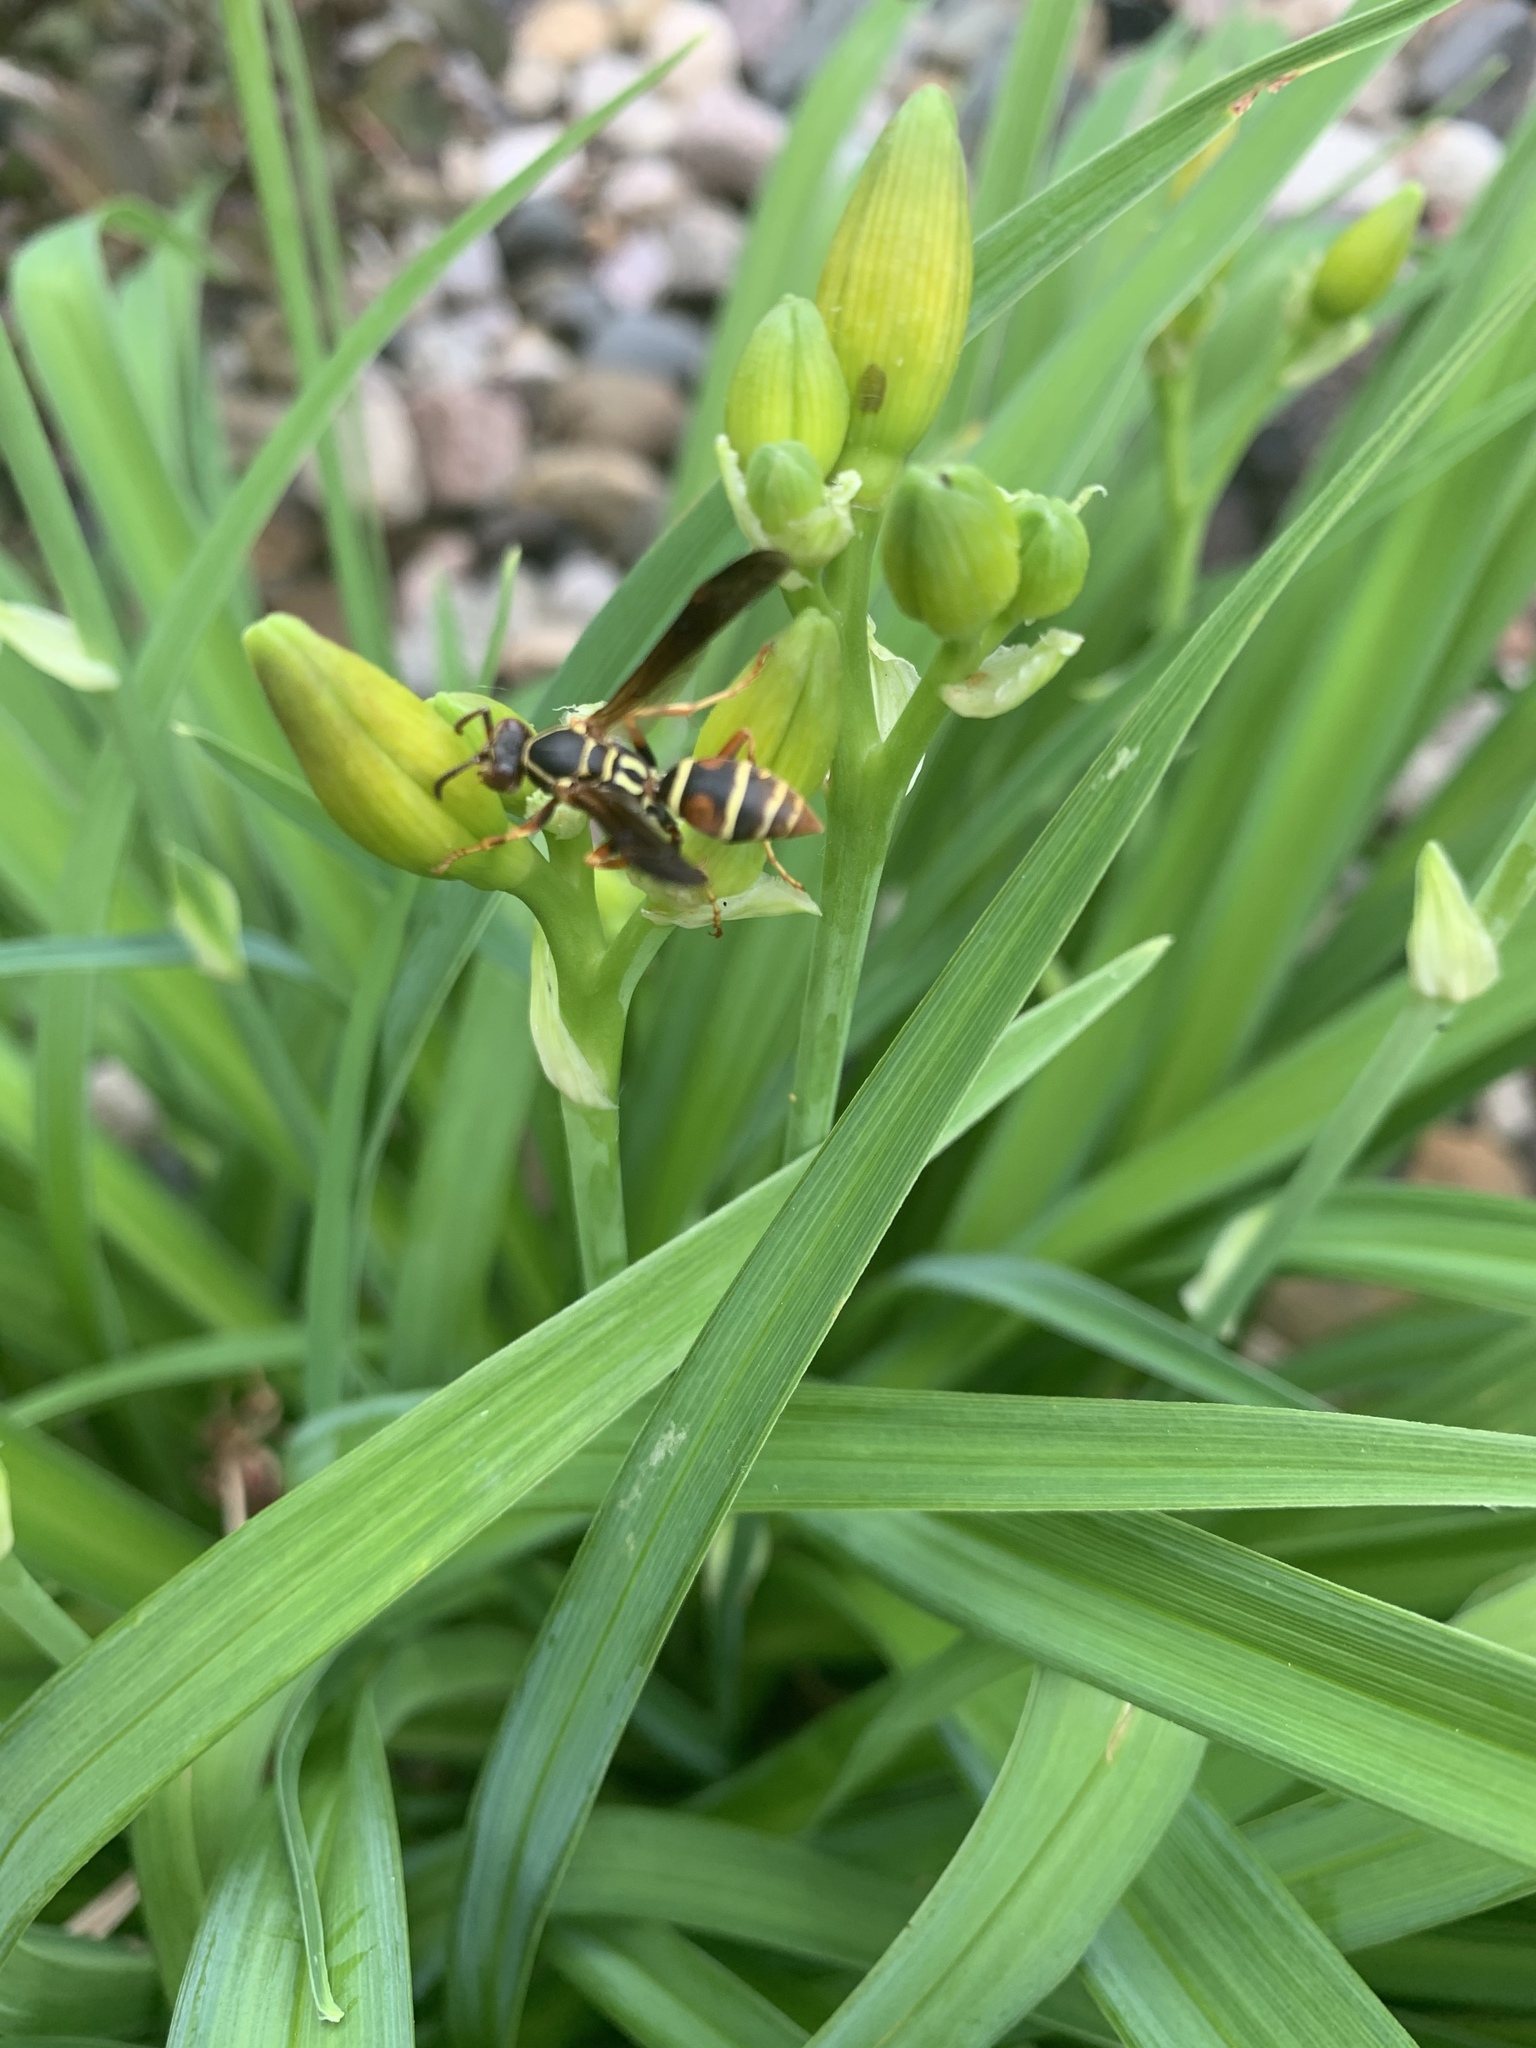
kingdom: Animalia
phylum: Arthropoda
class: Insecta
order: Hymenoptera
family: Eumenidae
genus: Polistes
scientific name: Polistes fuscatus
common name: Dark paper wasp
